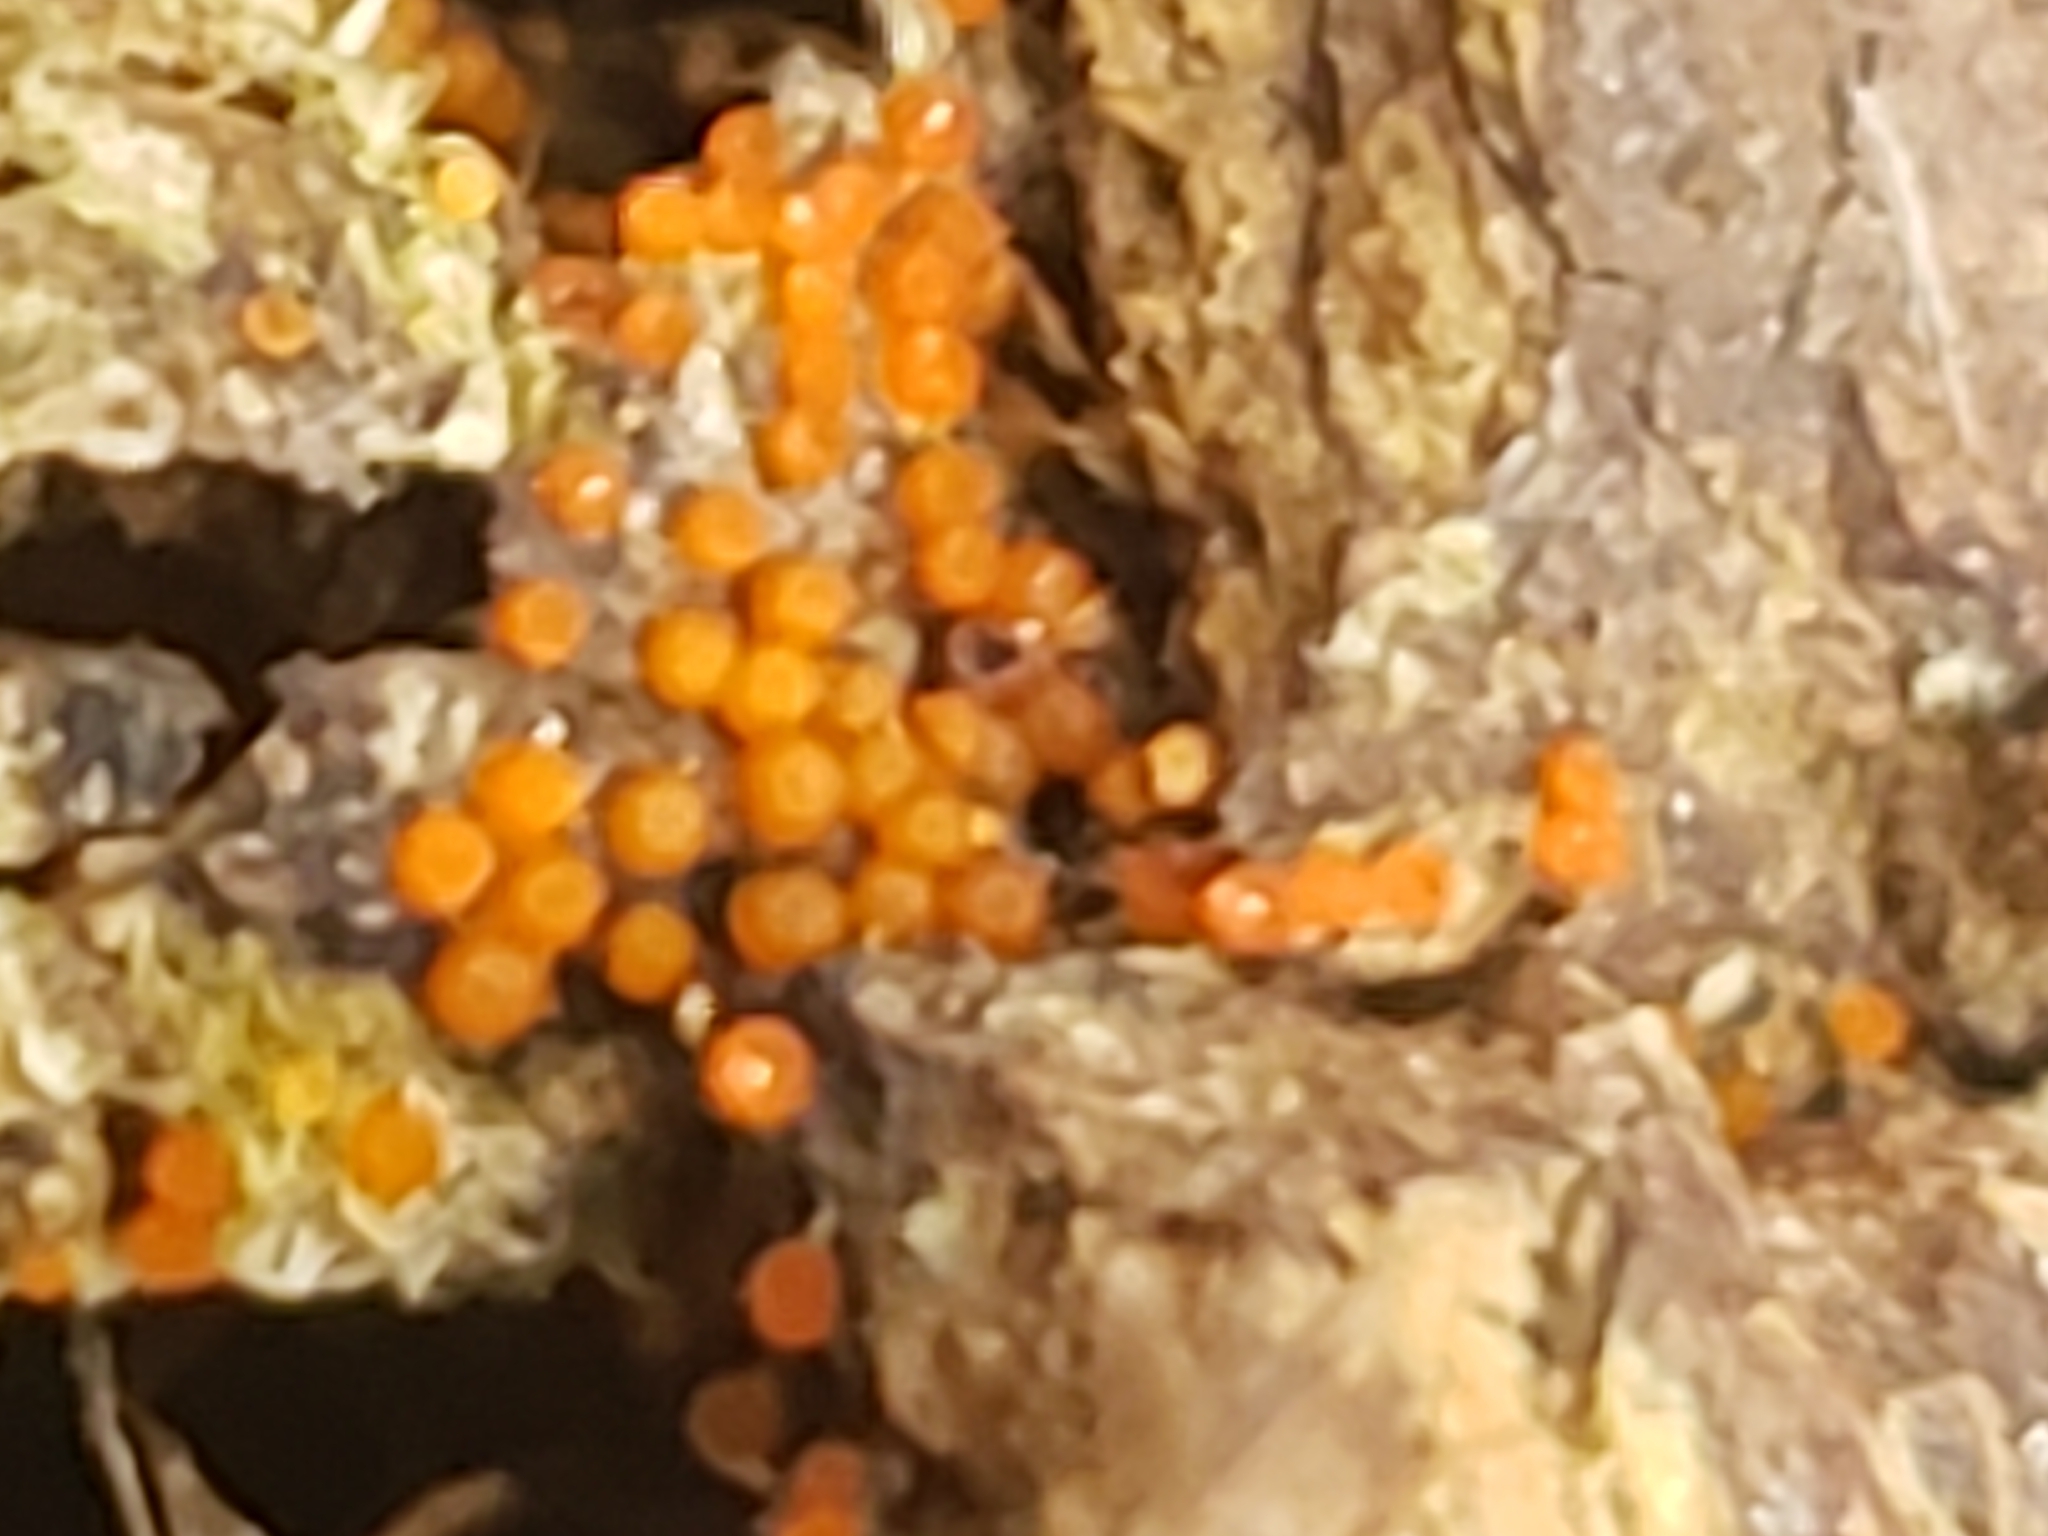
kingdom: Fungi
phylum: Ascomycota
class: Sordariomycetes
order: Hypocreales
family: Nectriaceae
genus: Hydropisphaera
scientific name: Hydropisphaera peziza
